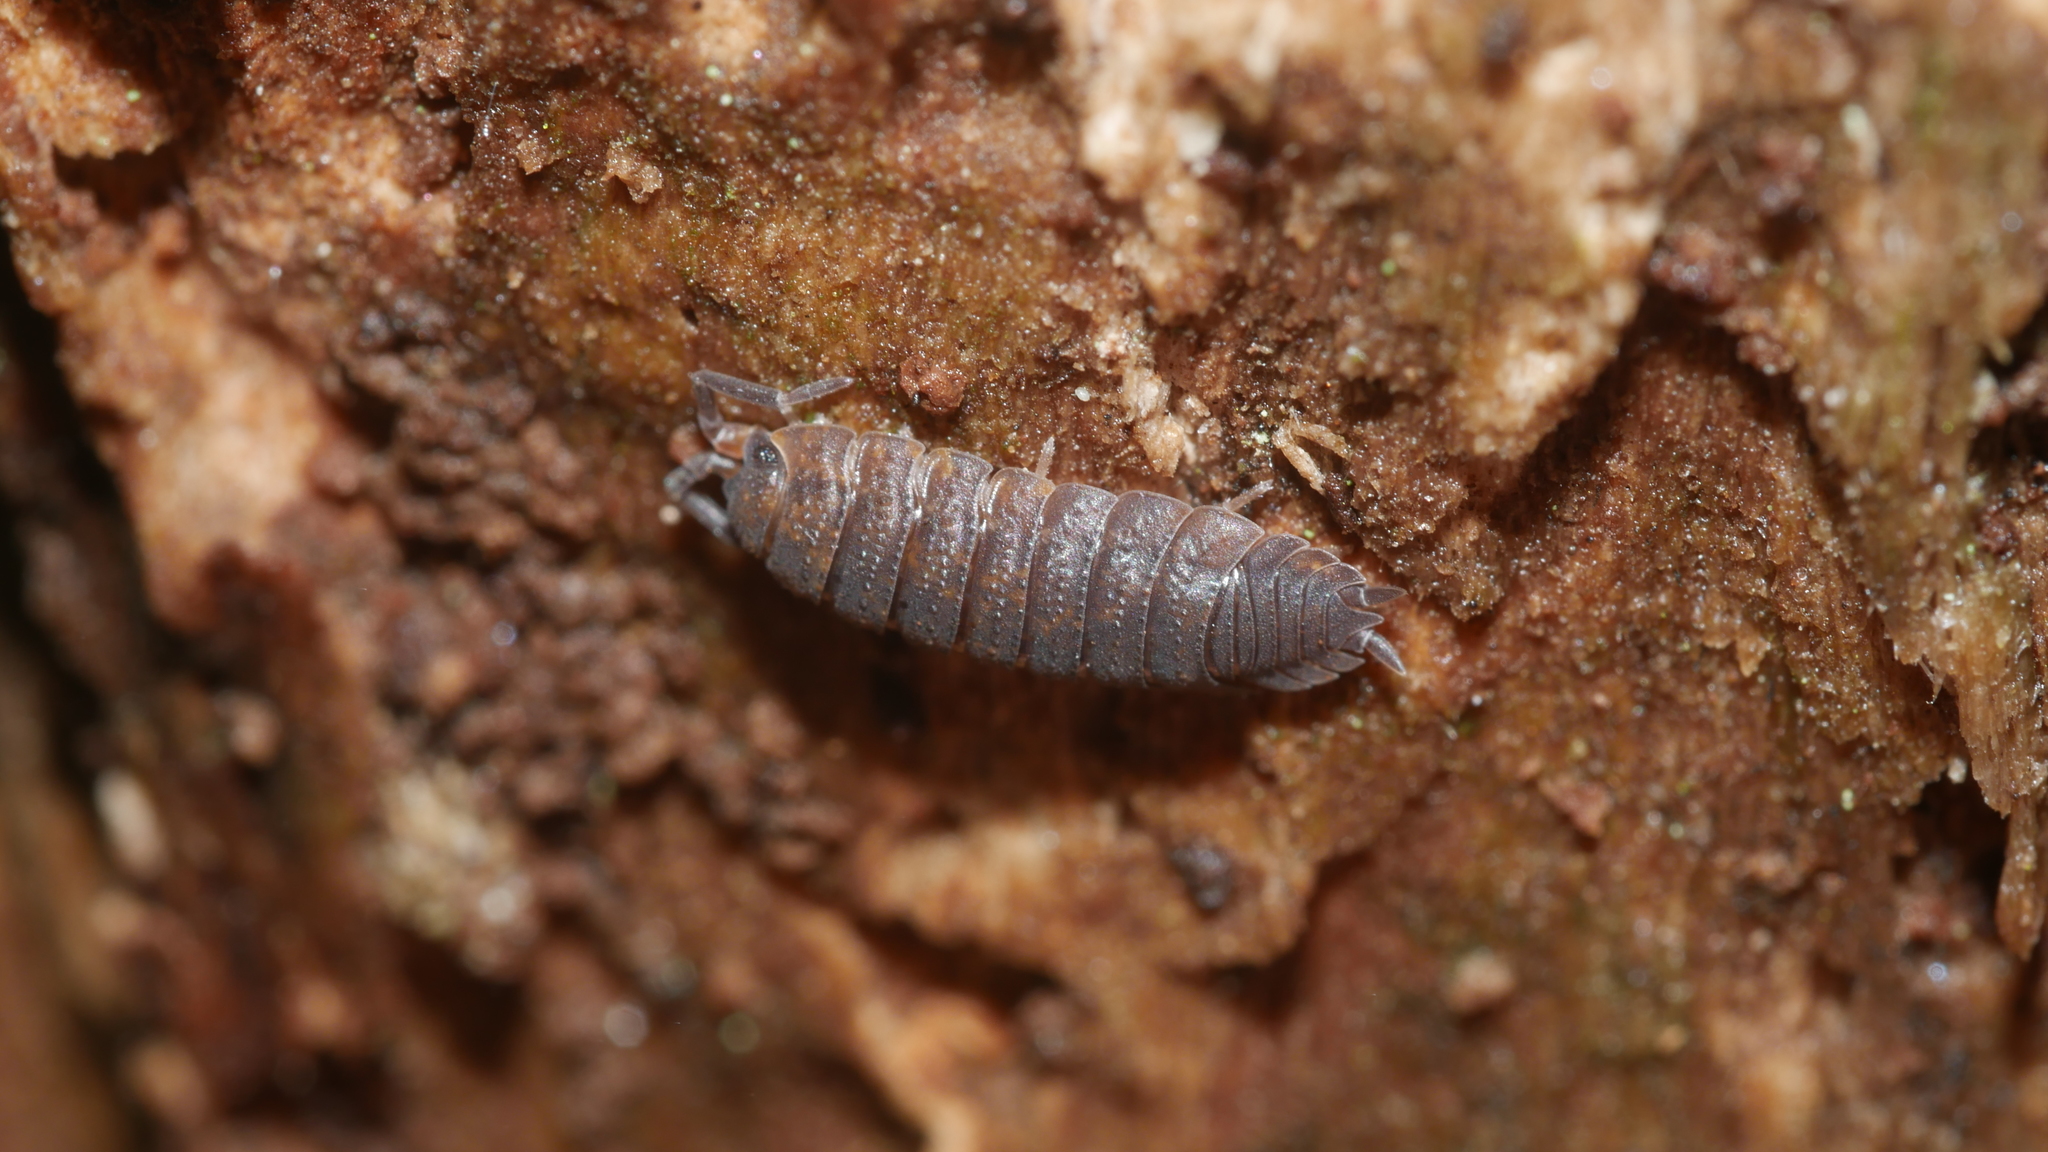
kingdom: Animalia
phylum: Arthropoda
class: Malacostraca
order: Isopoda
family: Porcellionidae
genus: Porcellio
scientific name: Porcellio scaber
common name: Common rough woodlouse
